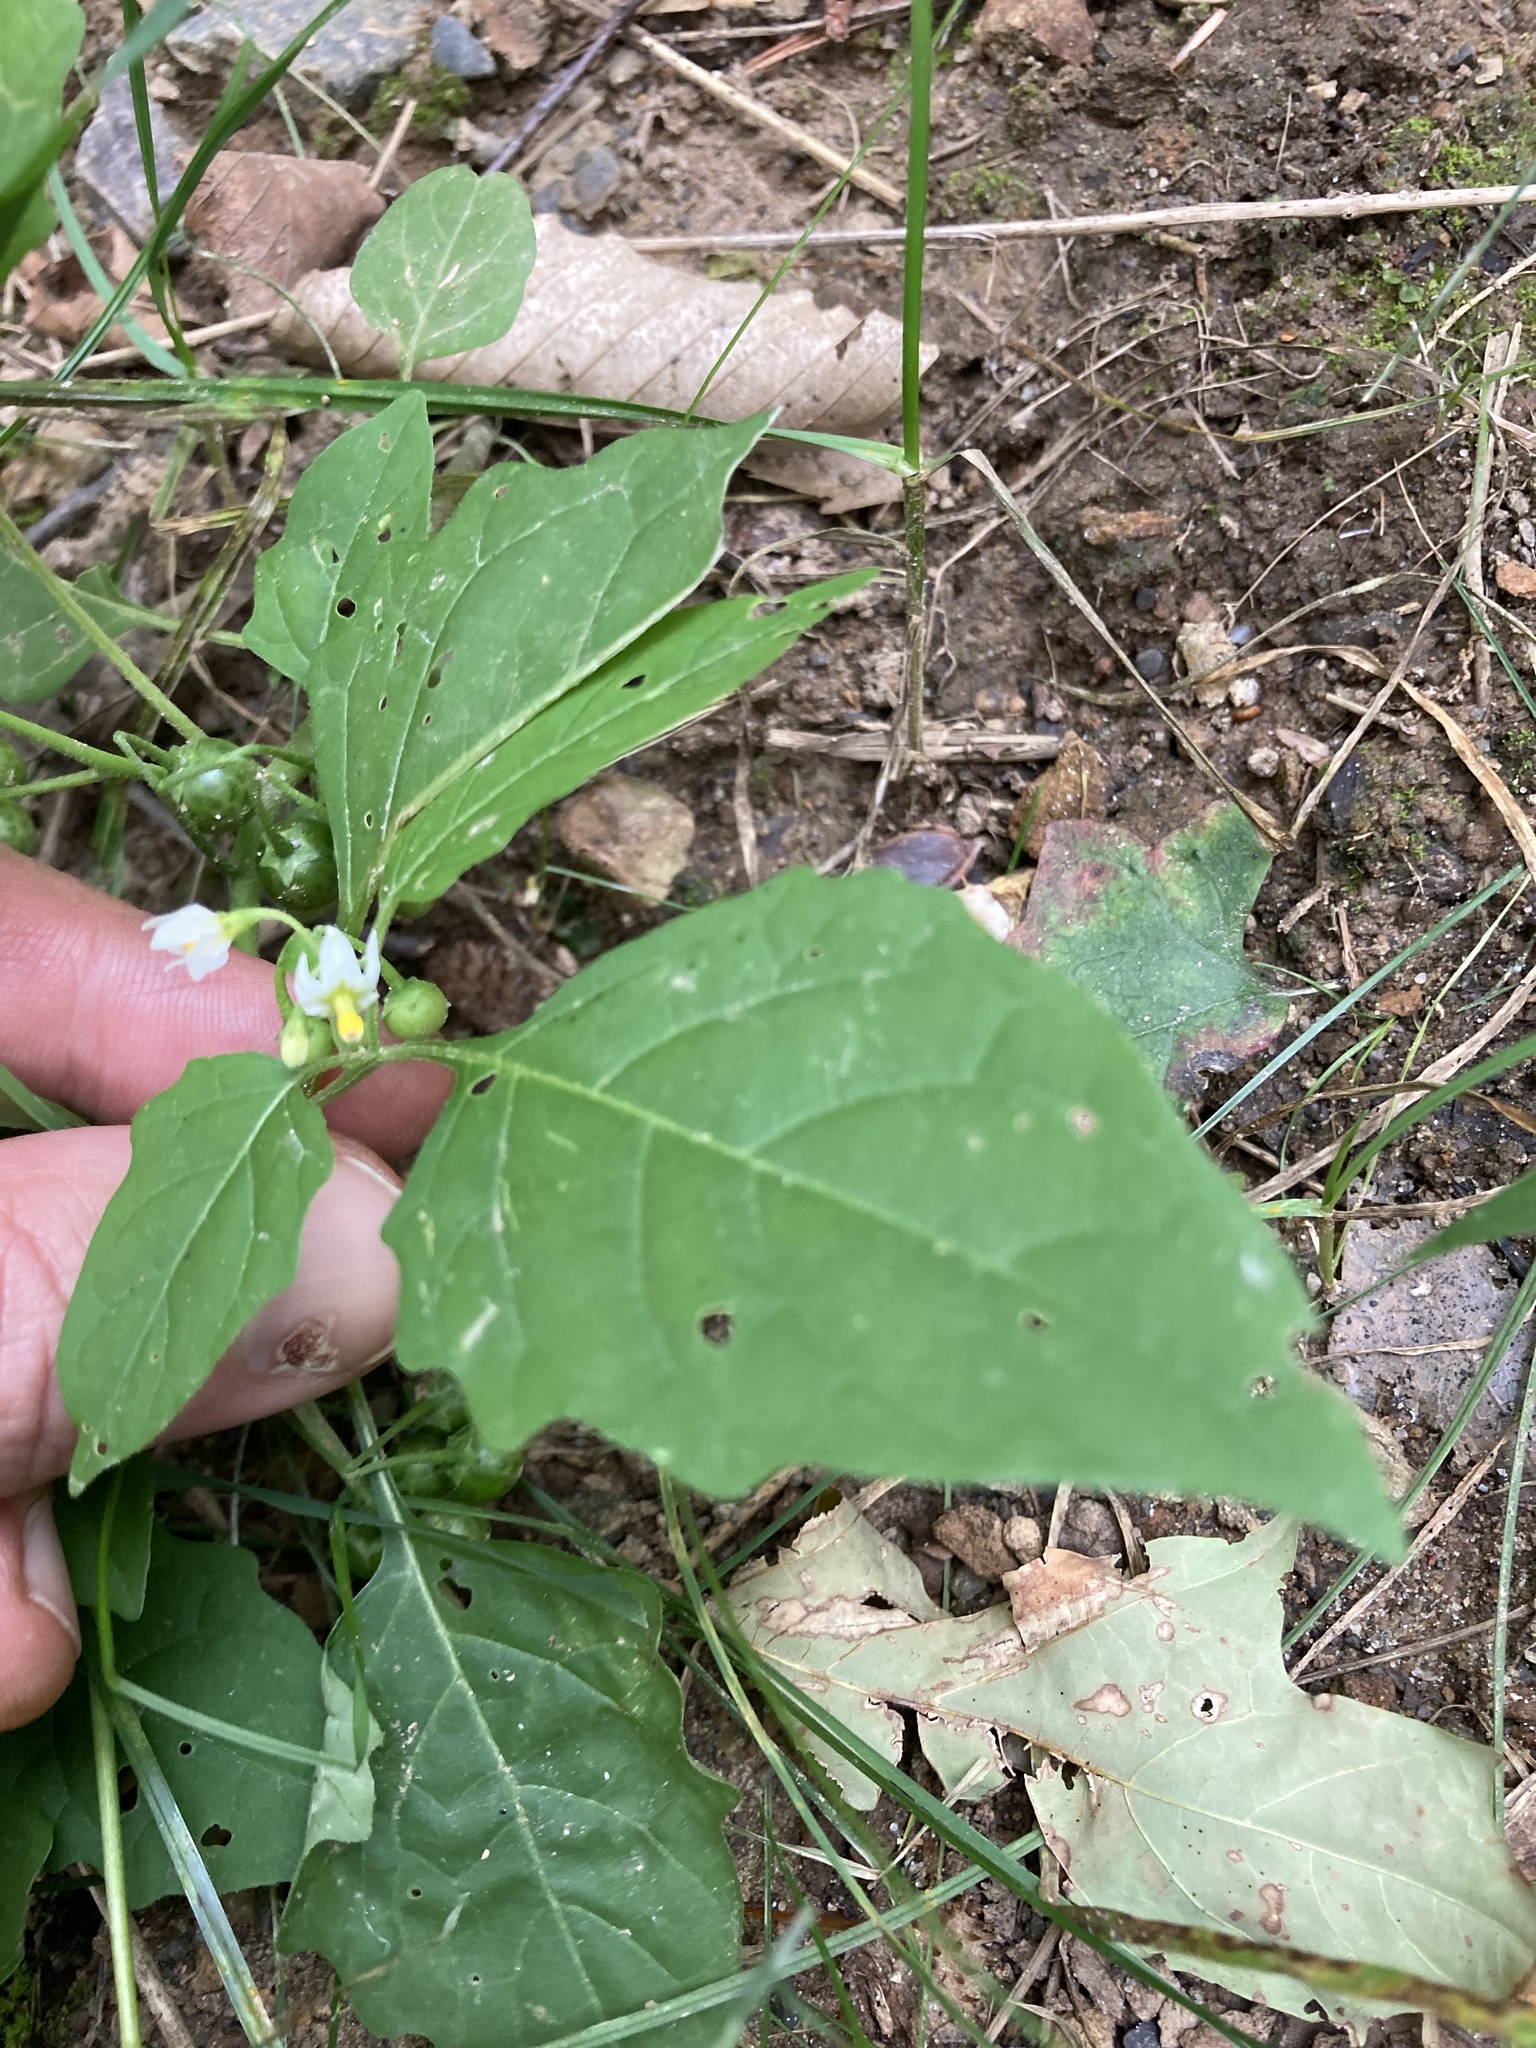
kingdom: Plantae
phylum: Tracheophyta
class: Magnoliopsida
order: Solanales
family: Solanaceae
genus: Solanum
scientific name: Solanum emulans
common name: Eastern black nightshade
